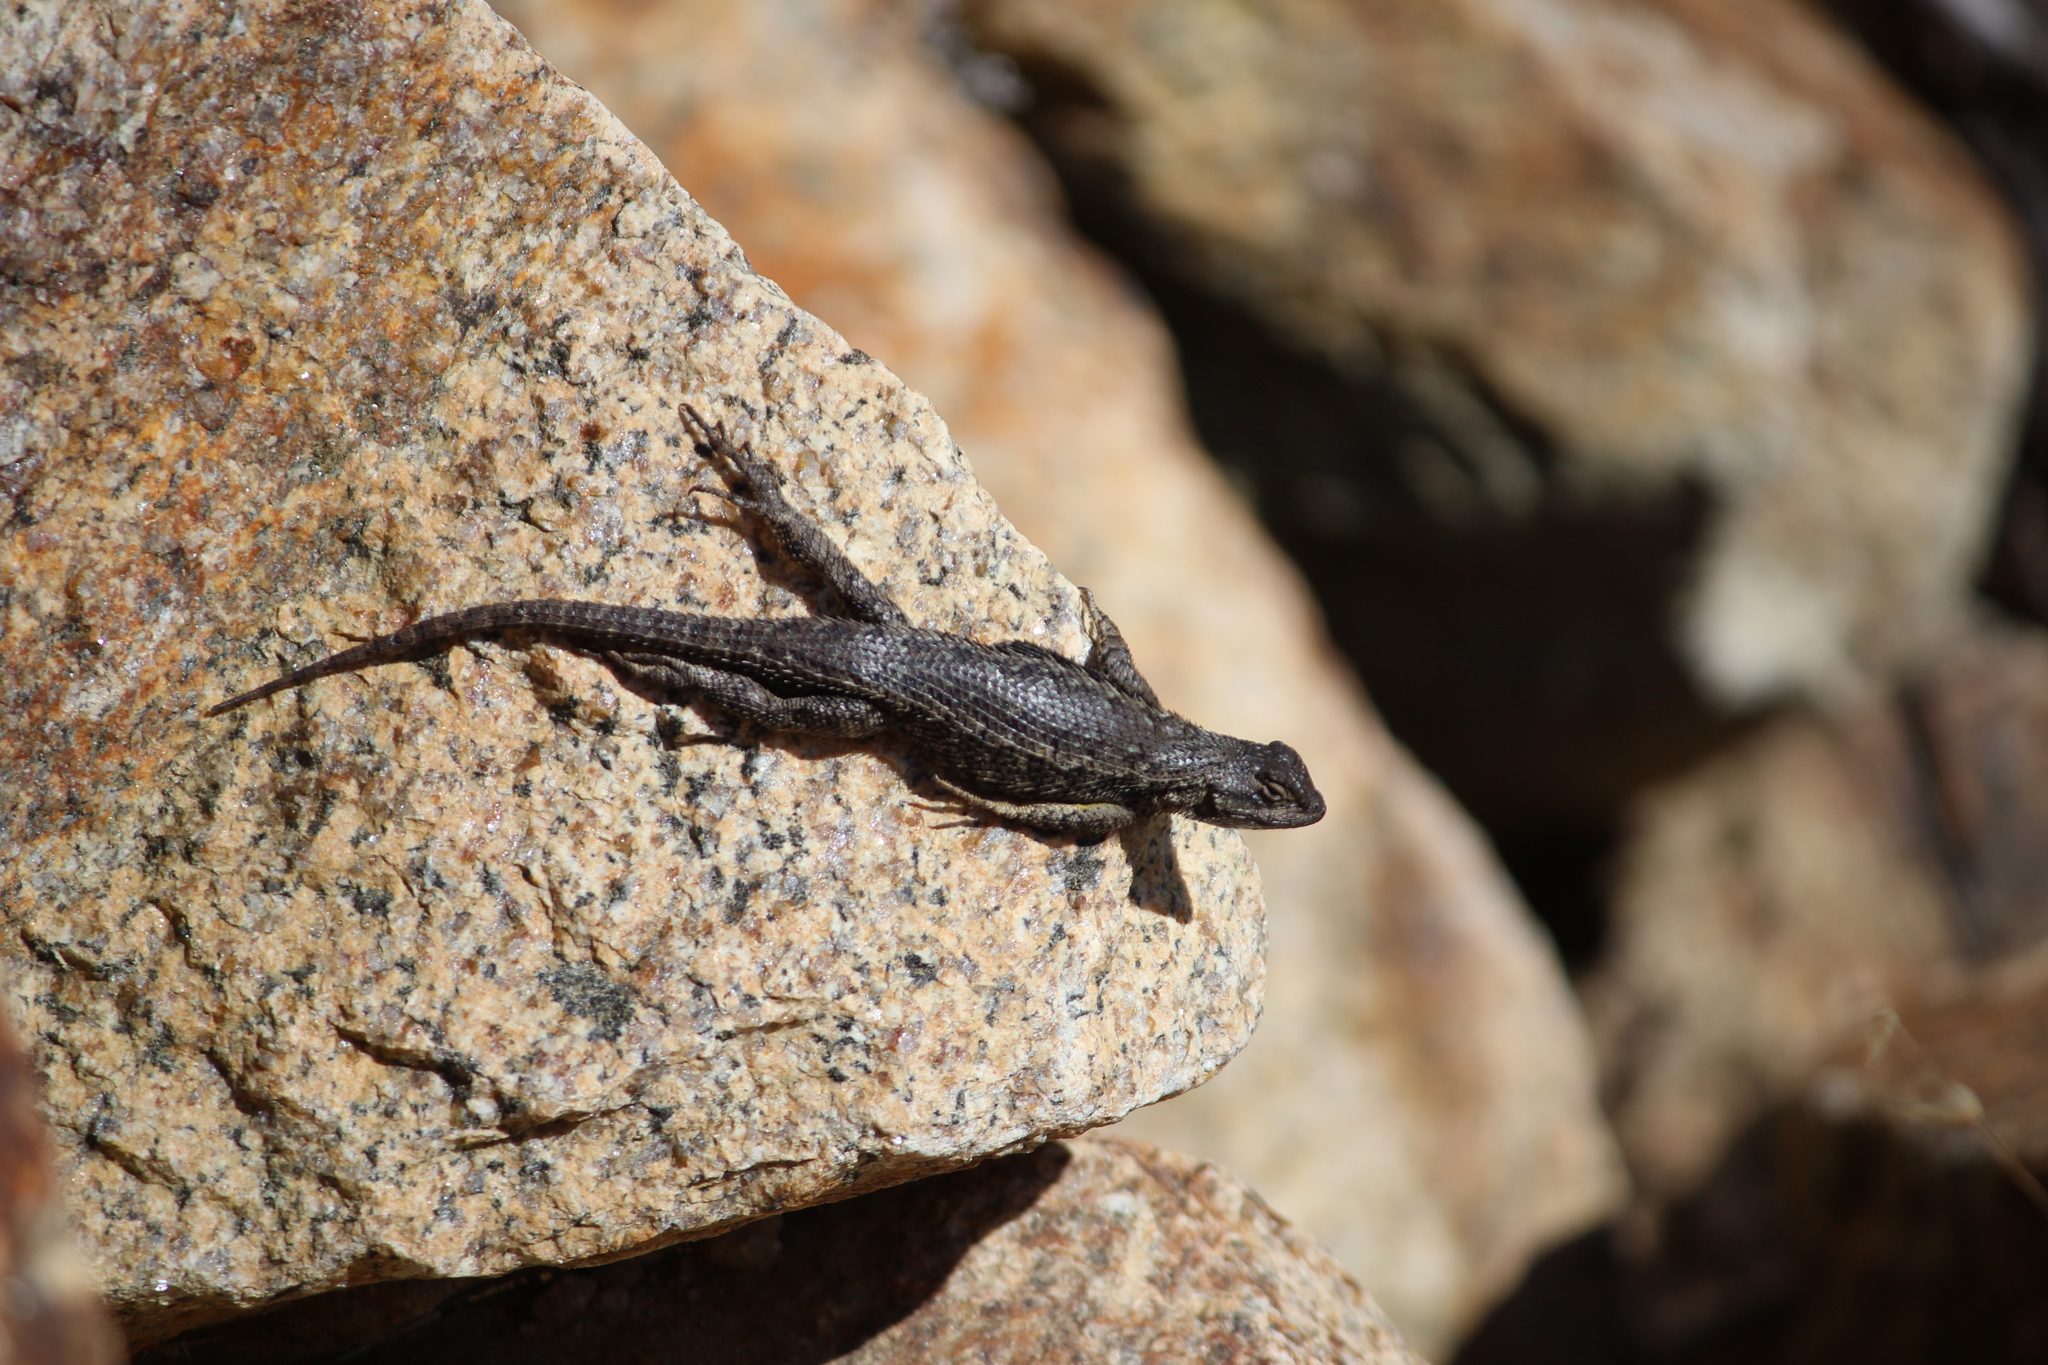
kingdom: Animalia
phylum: Chordata
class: Squamata
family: Phrynosomatidae
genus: Sceloporus
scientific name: Sceloporus occidentalis
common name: Western fence lizard
